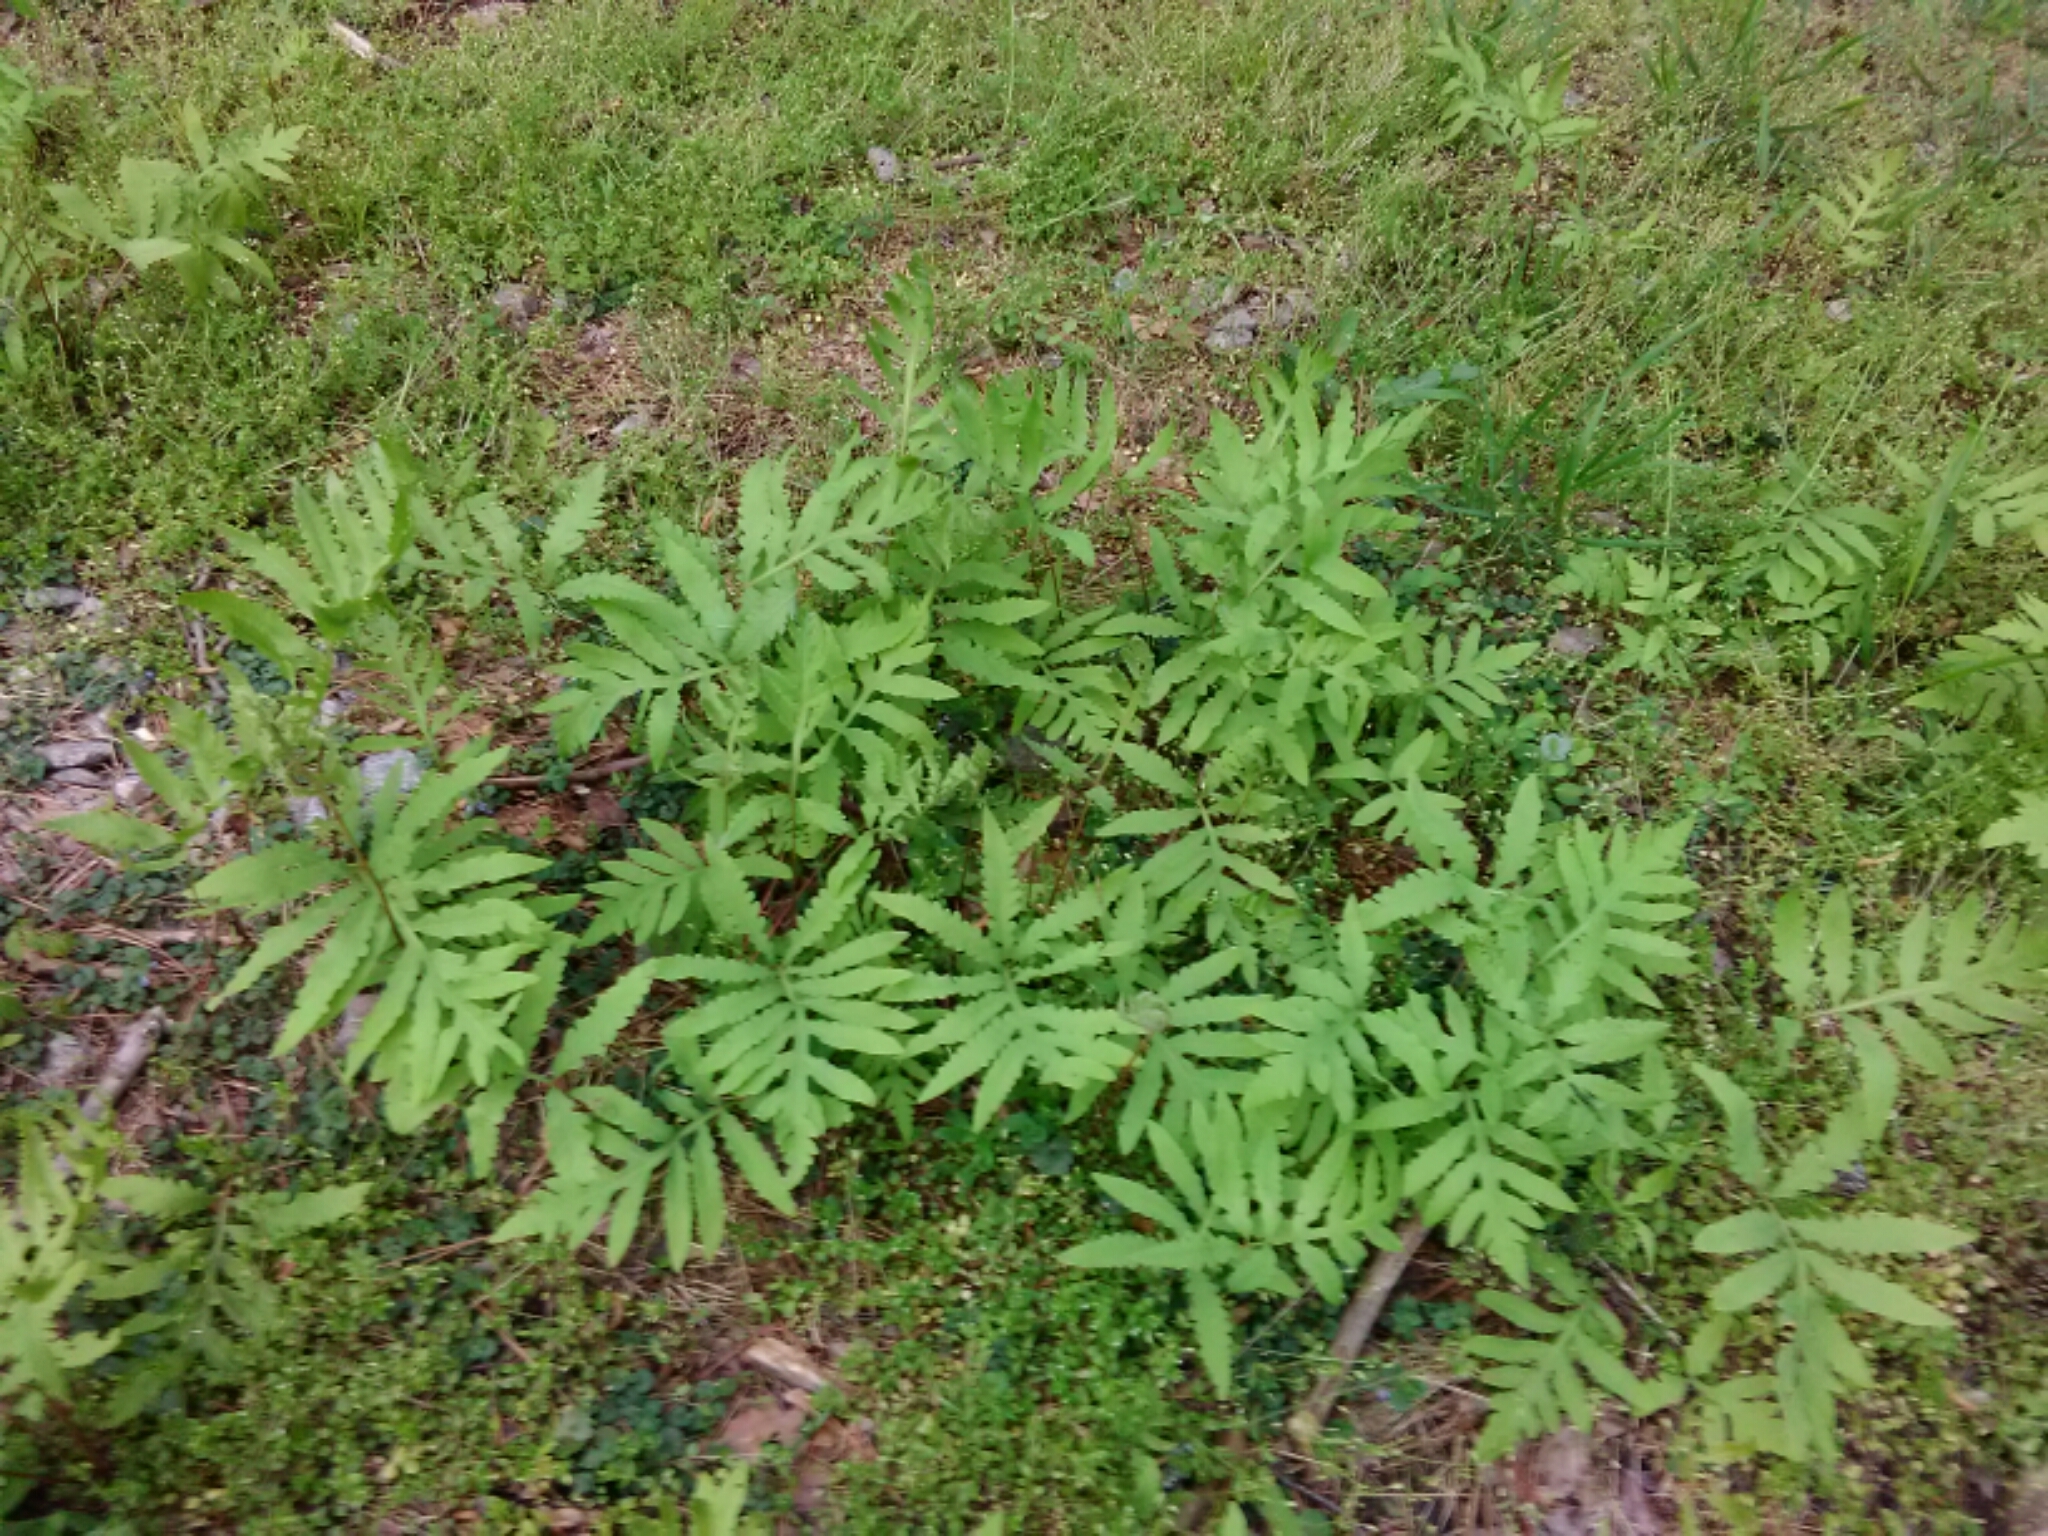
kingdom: Plantae
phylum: Tracheophyta
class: Polypodiopsida
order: Polypodiales
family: Onocleaceae
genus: Onoclea
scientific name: Onoclea sensibilis
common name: Sensitive fern
